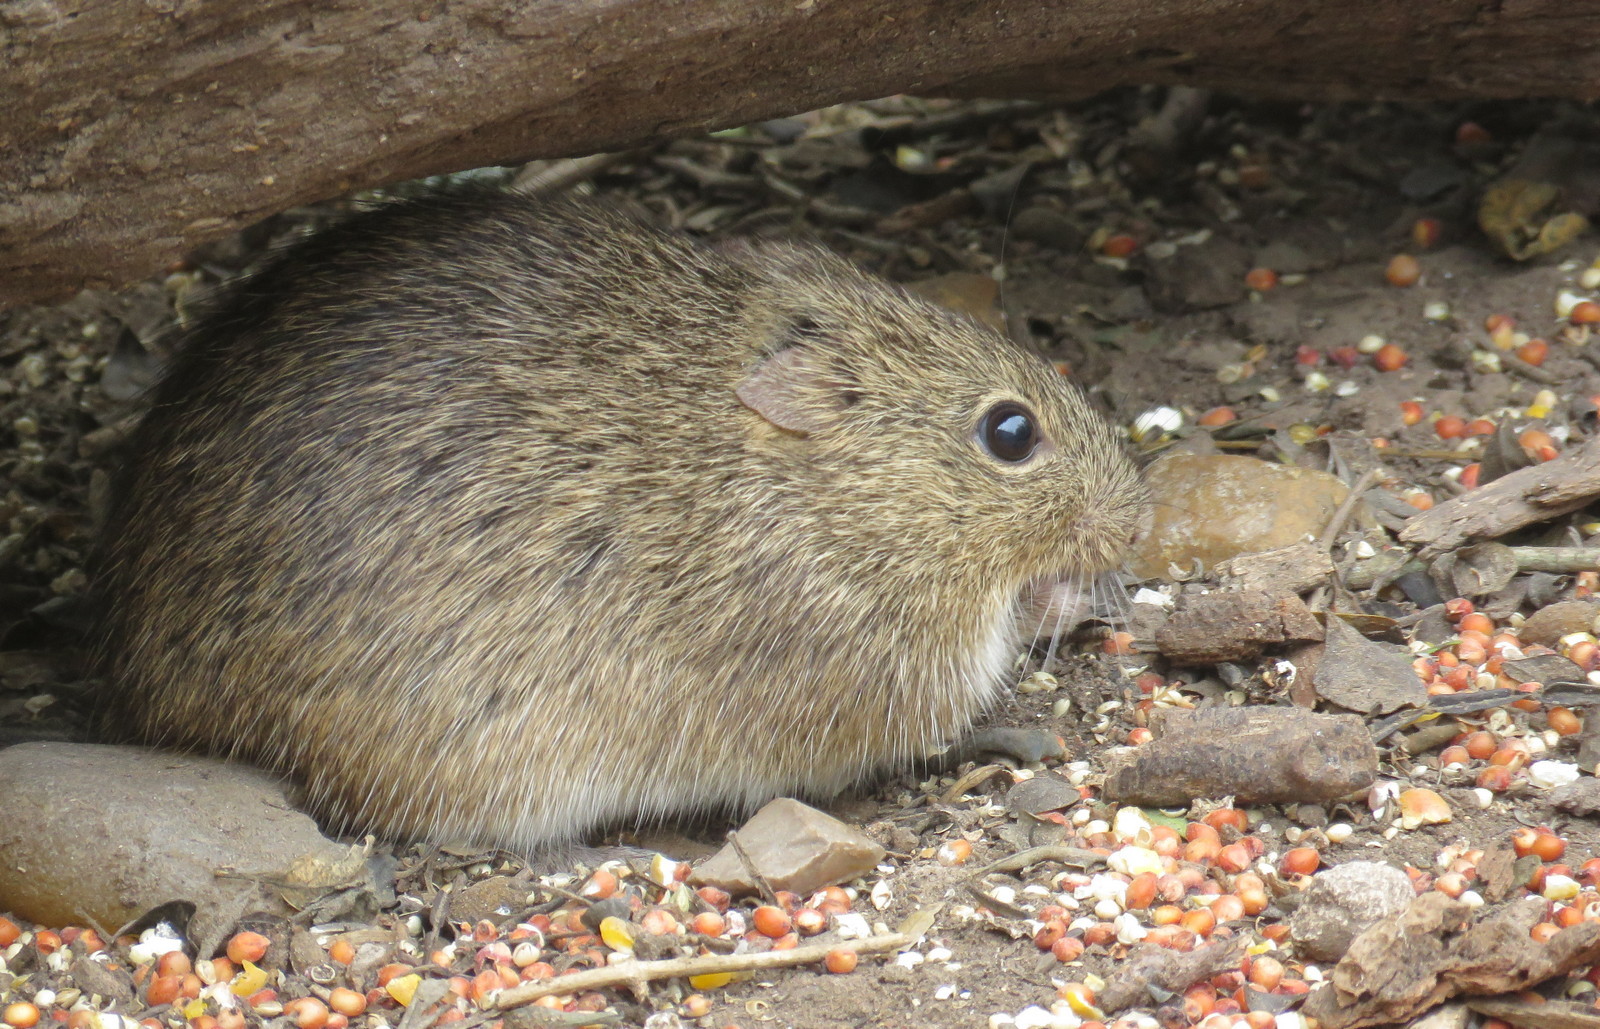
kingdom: Animalia
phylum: Chordata
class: Mammalia
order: Rodentia
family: Cricetidae
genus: Sigmodon
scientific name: Sigmodon hispidus
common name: Hispid cotton rat
